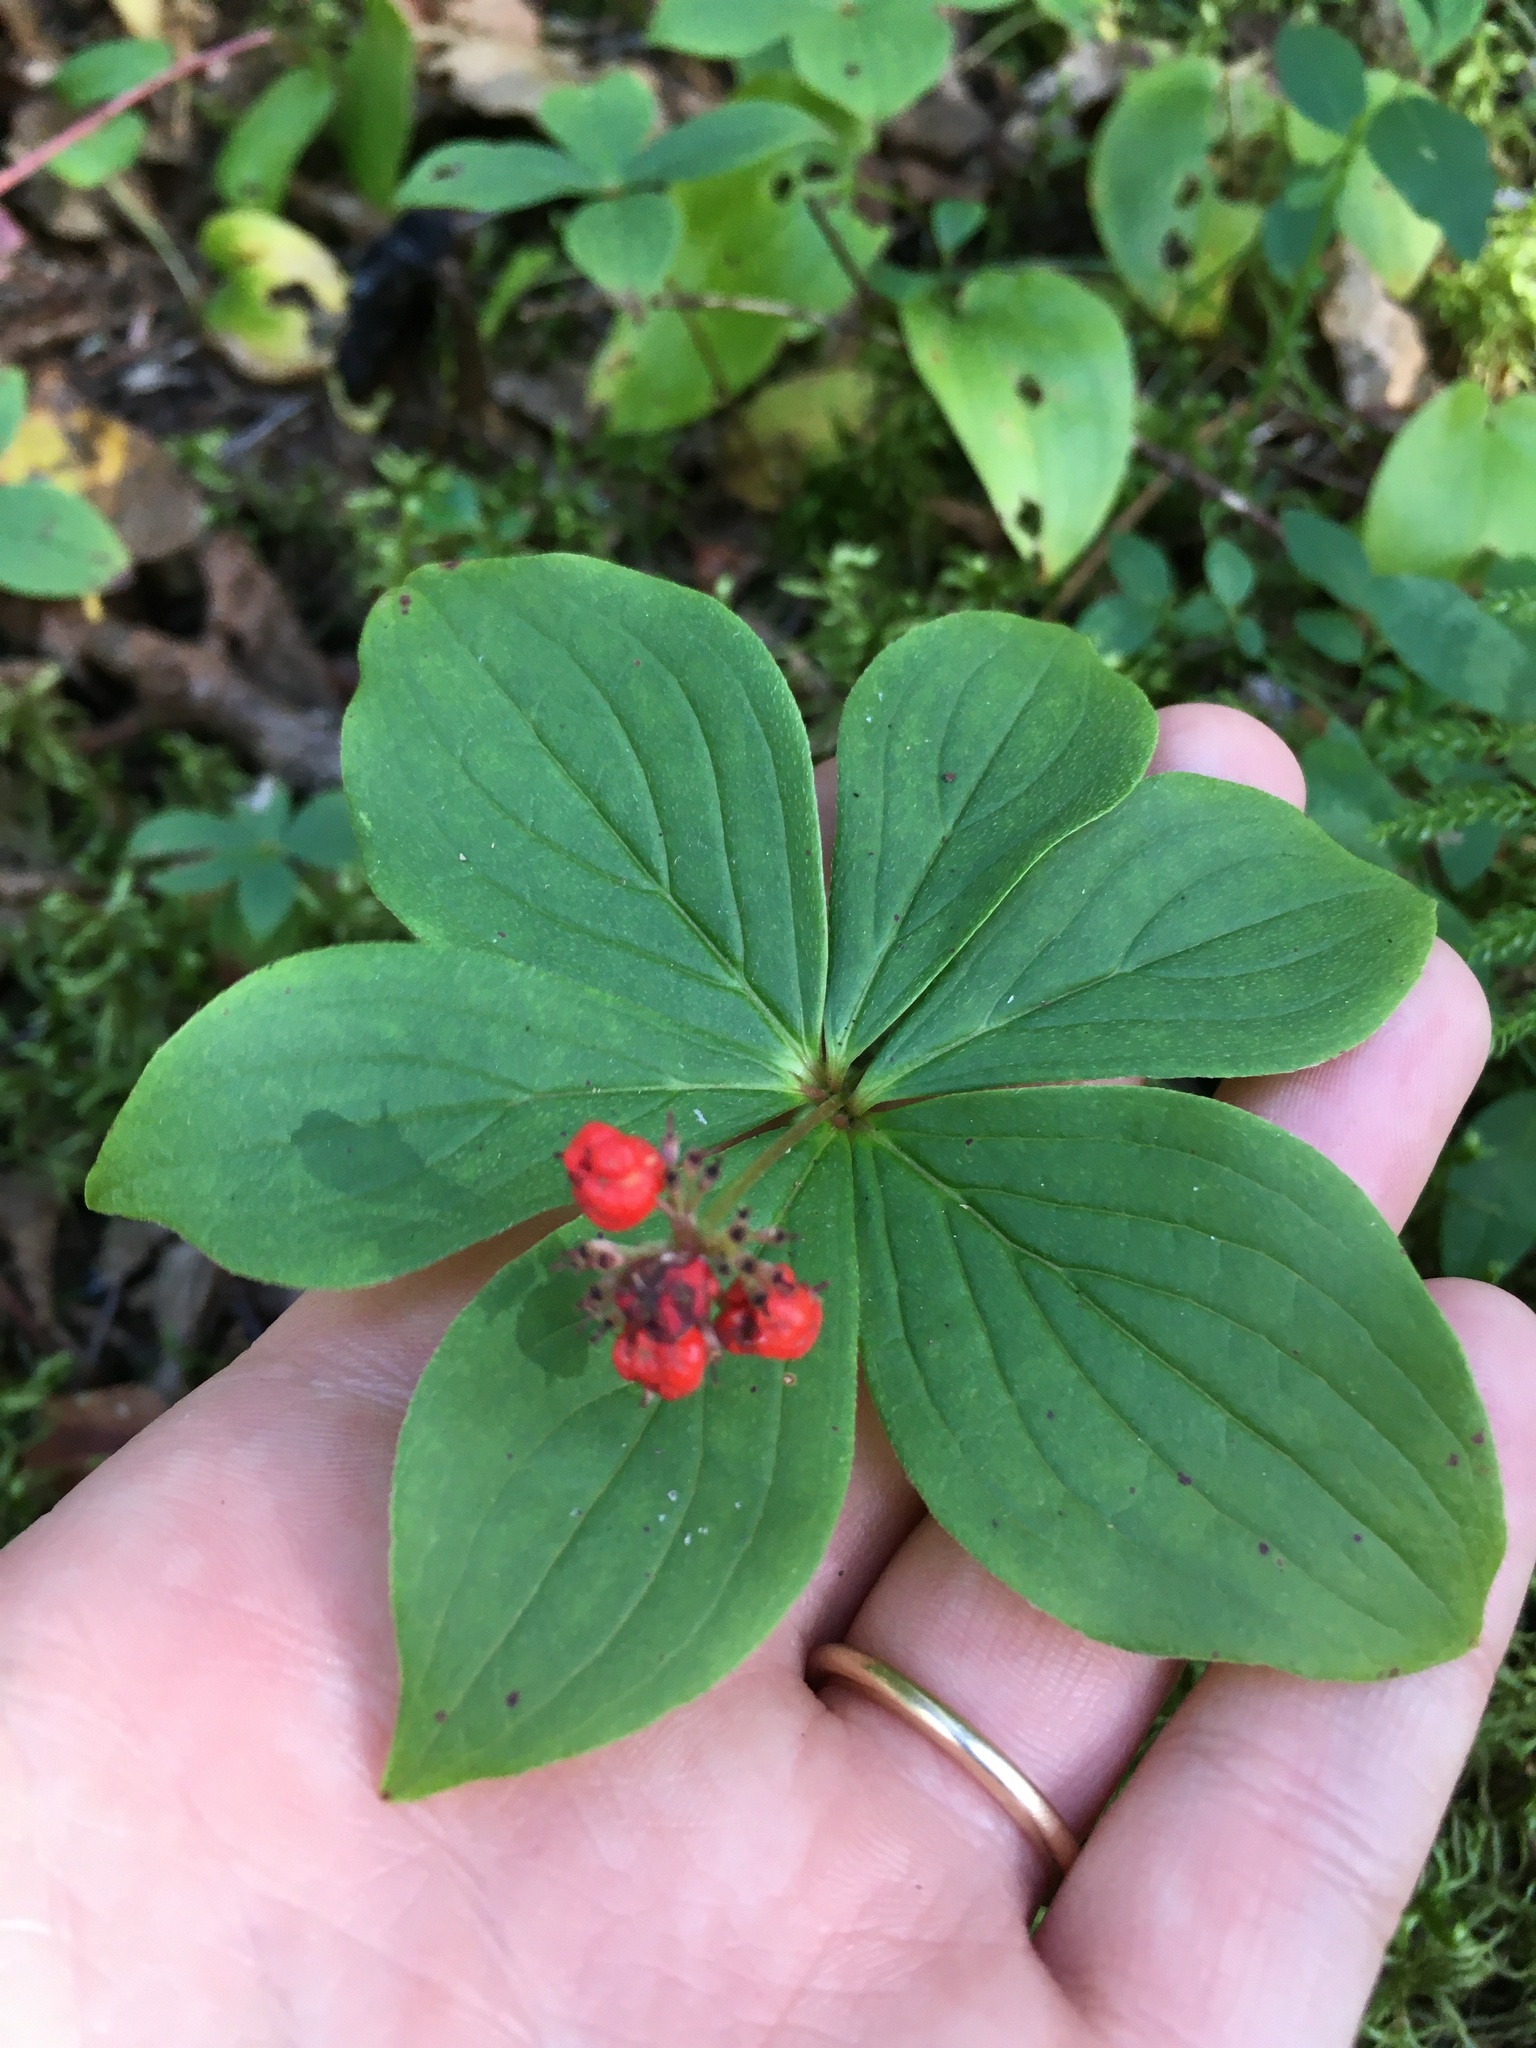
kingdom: Plantae
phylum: Tracheophyta
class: Magnoliopsida
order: Cornales
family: Cornaceae
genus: Cornus
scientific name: Cornus canadensis
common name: Creeping dogwood
